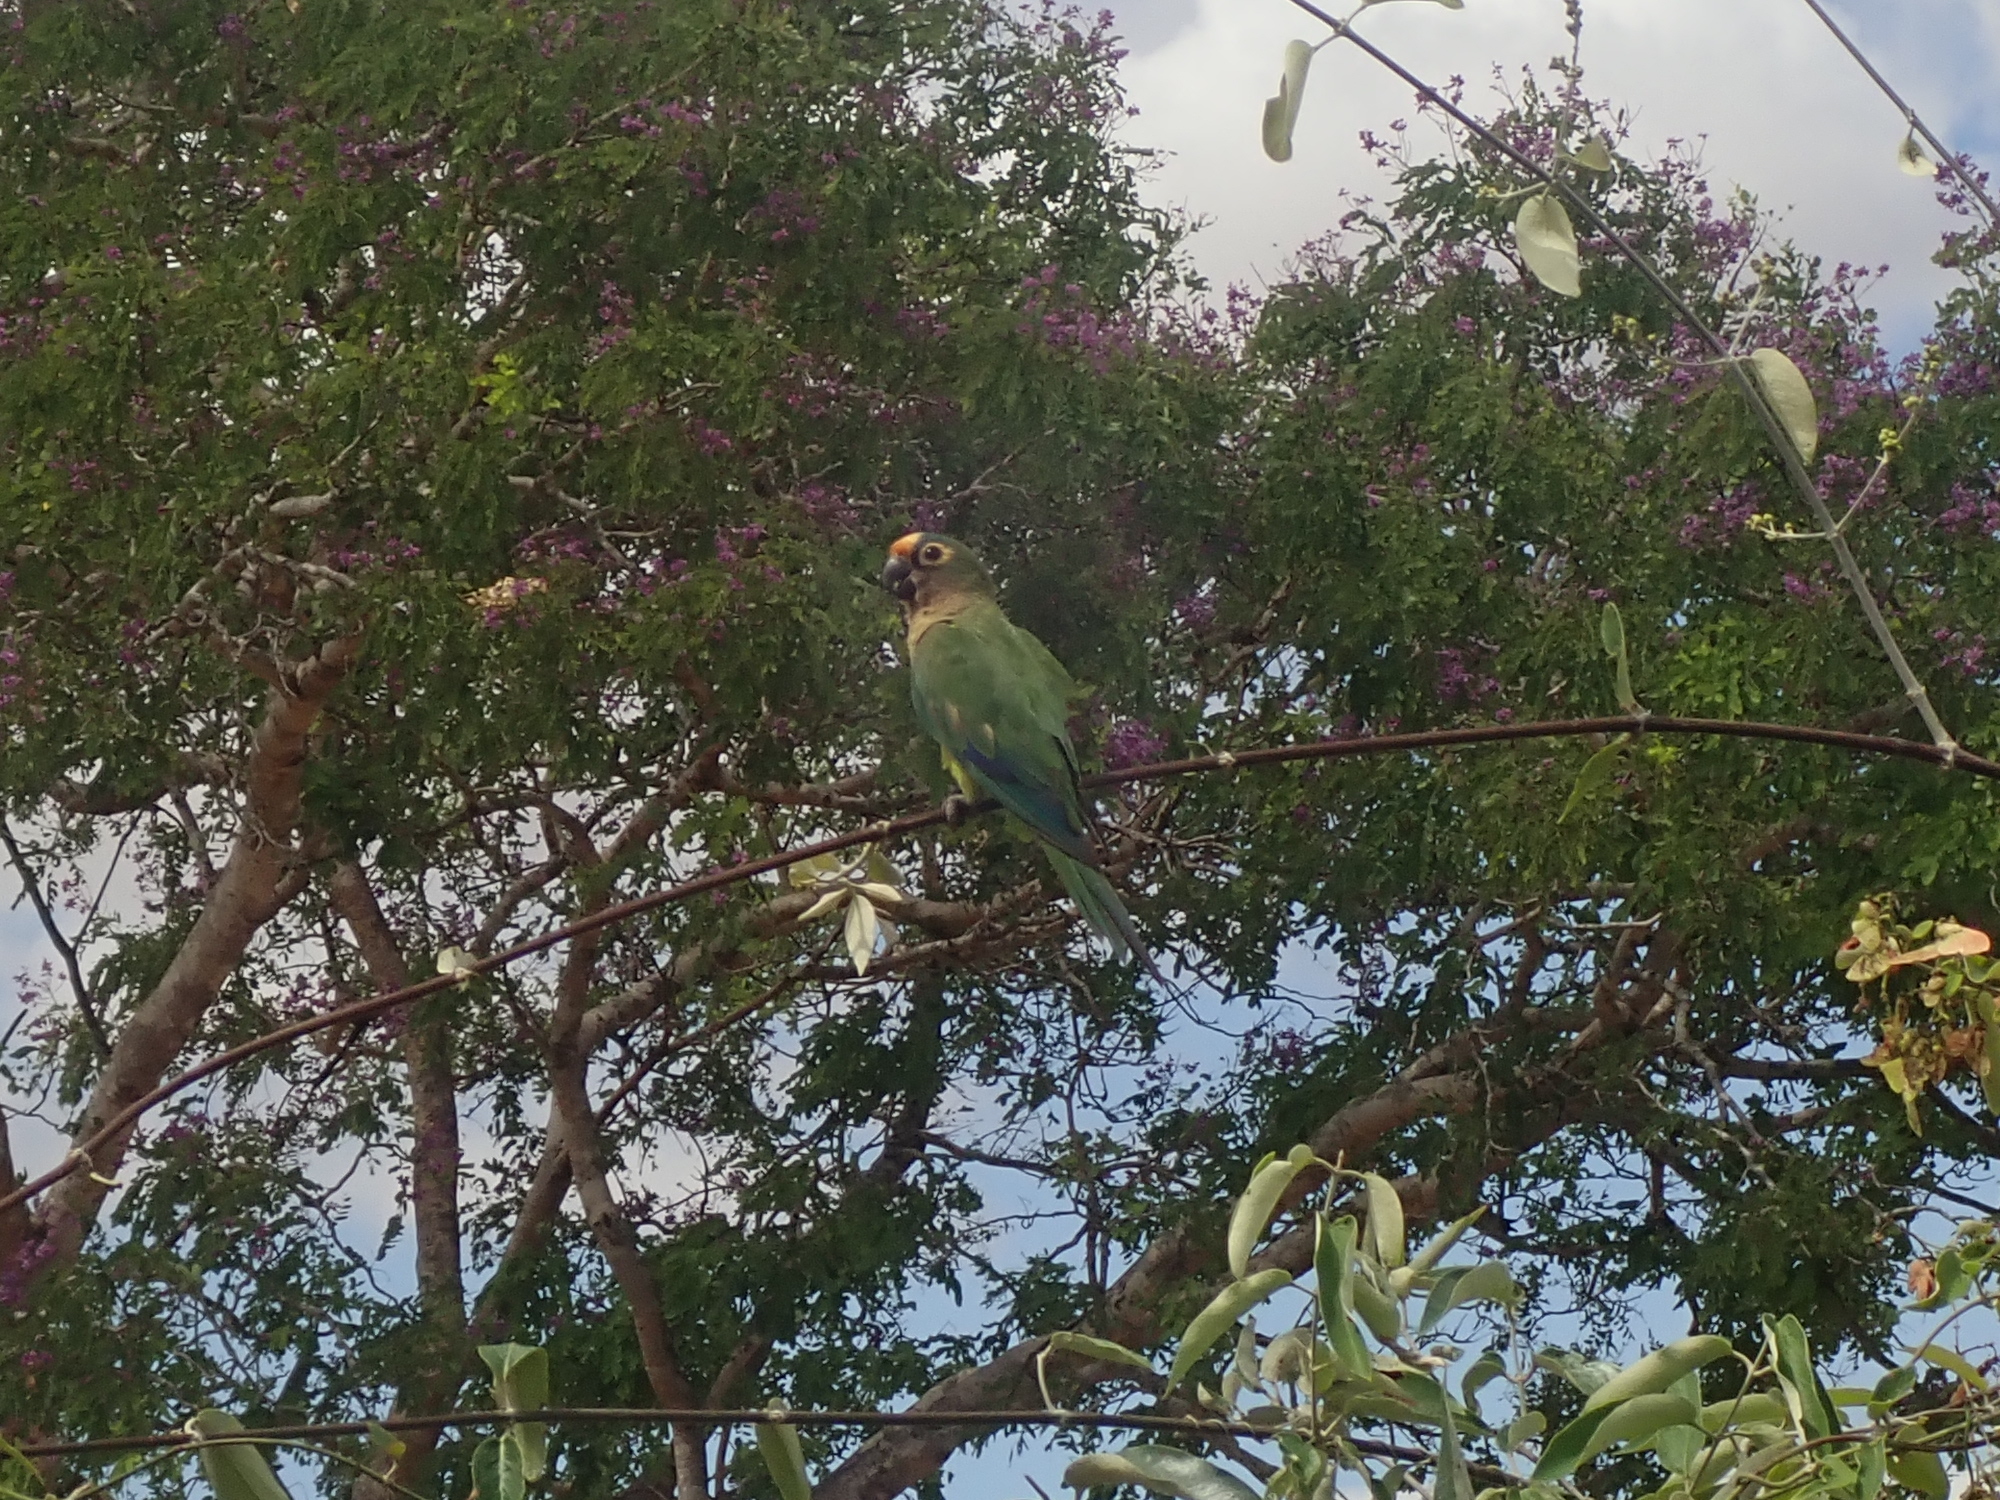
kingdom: Animalia
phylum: Chordata
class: Aves
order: Psittaciformes
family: Psittacidae
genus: Aratinga
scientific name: Aratinga aurea
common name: Peach-fronted parakeet
